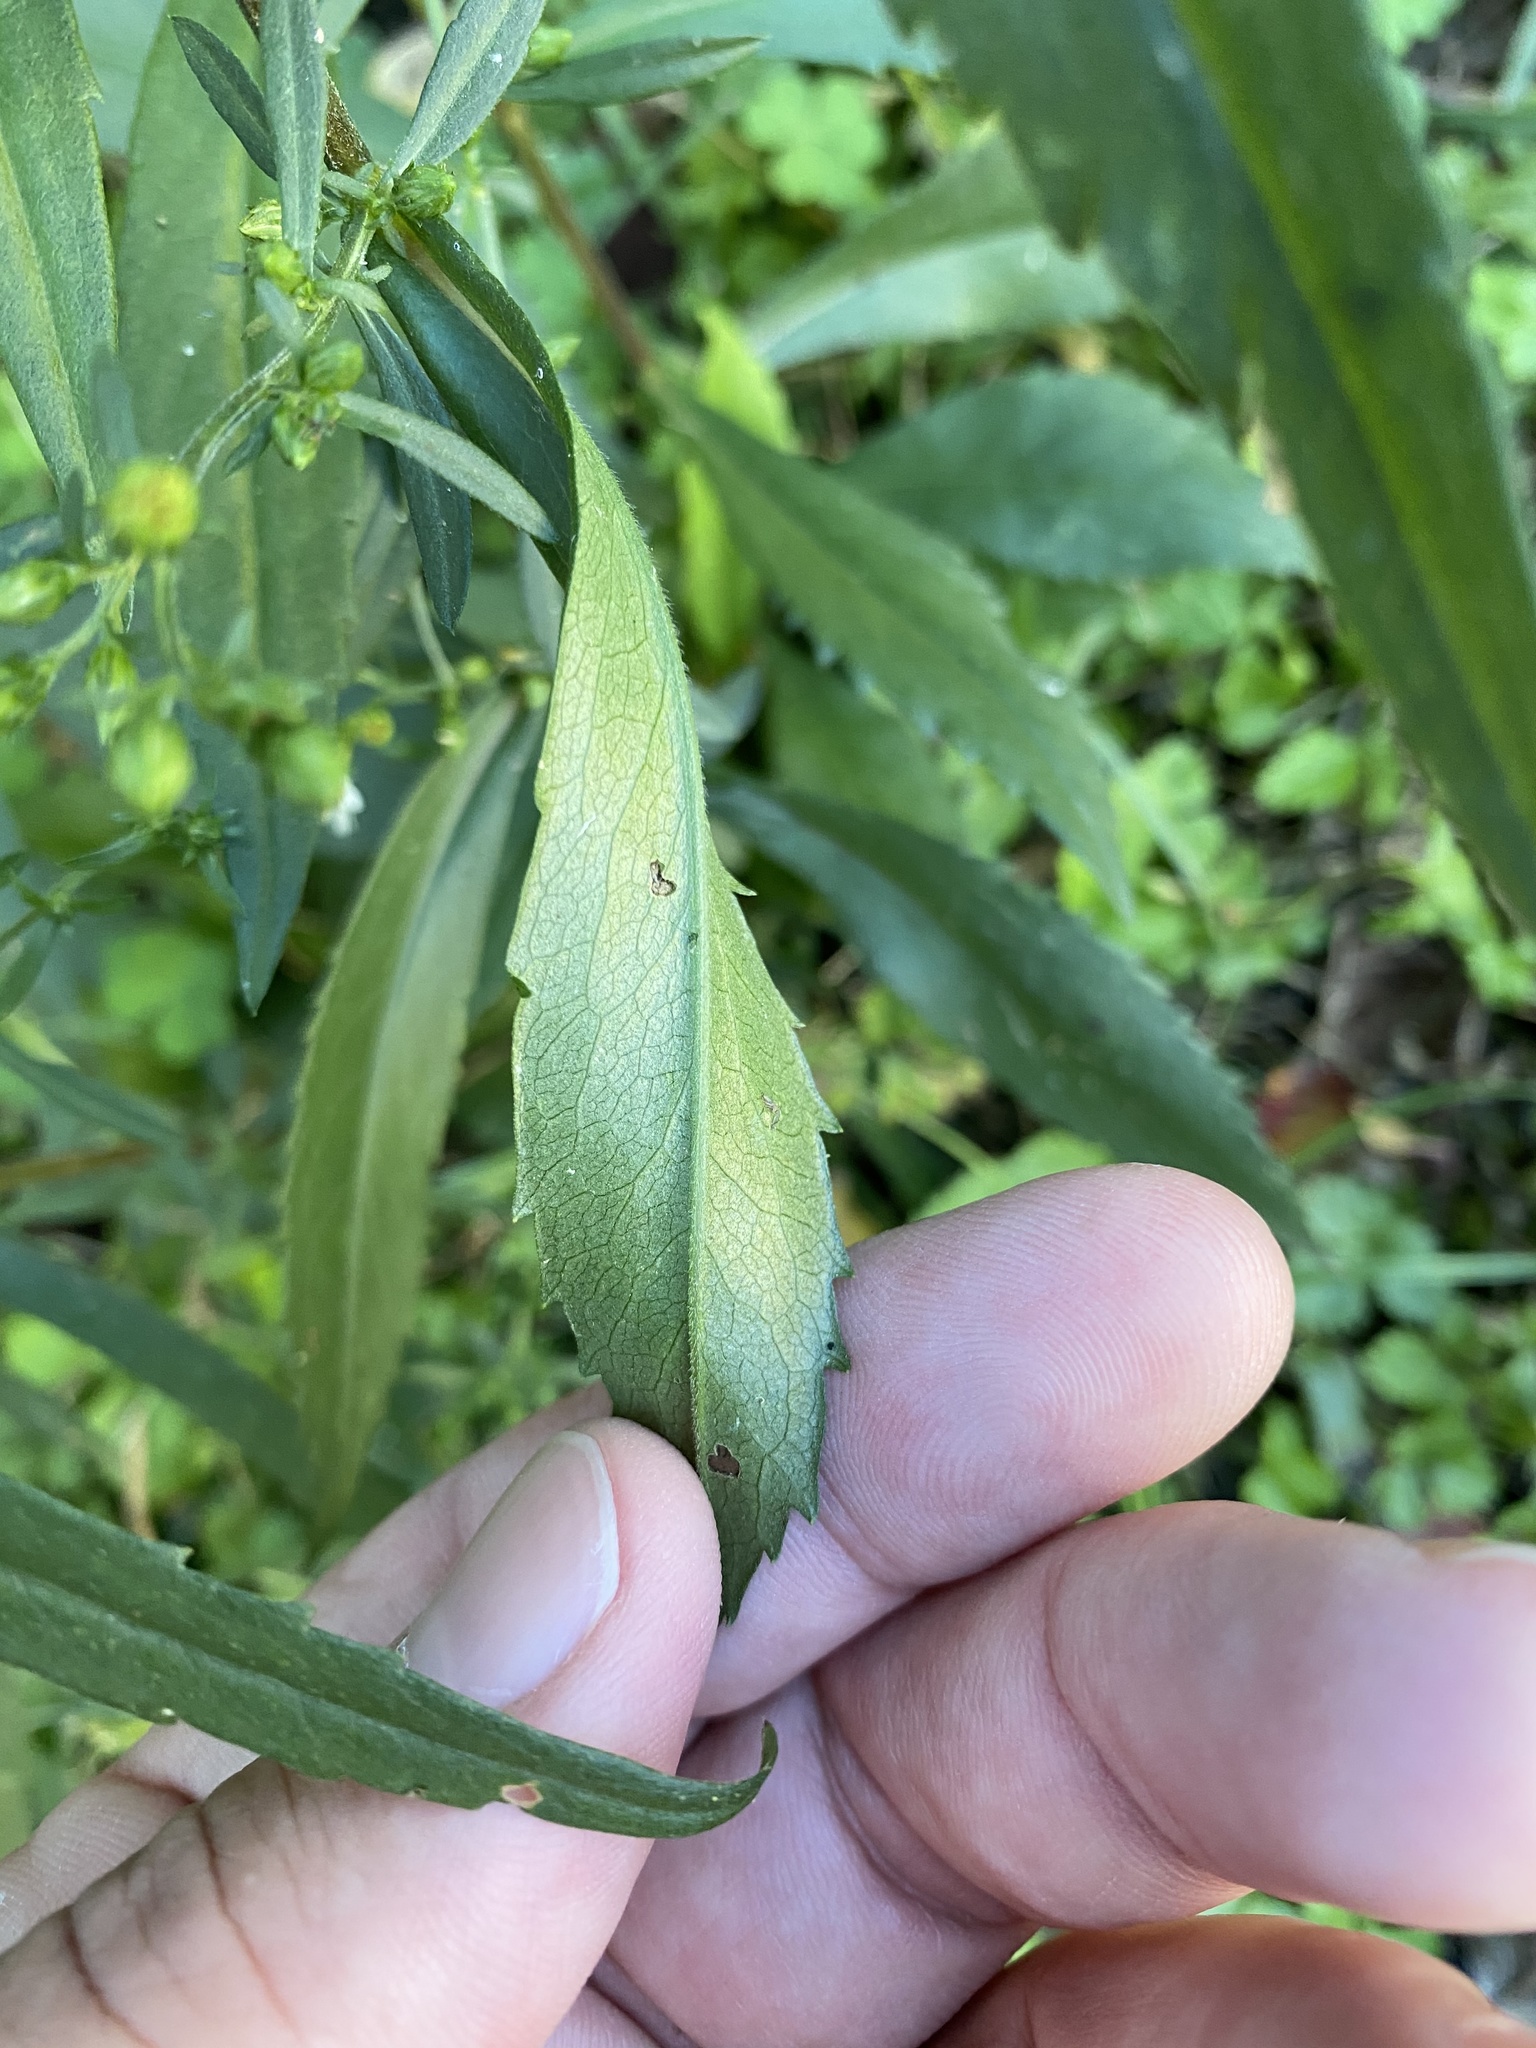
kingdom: Plantae
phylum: Tracheophyta
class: Magnoliopsida
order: Asterales
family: Asteraceae
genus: Symphyotrichum
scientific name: Symphyotrichum lateriflorum
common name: Calico aster
